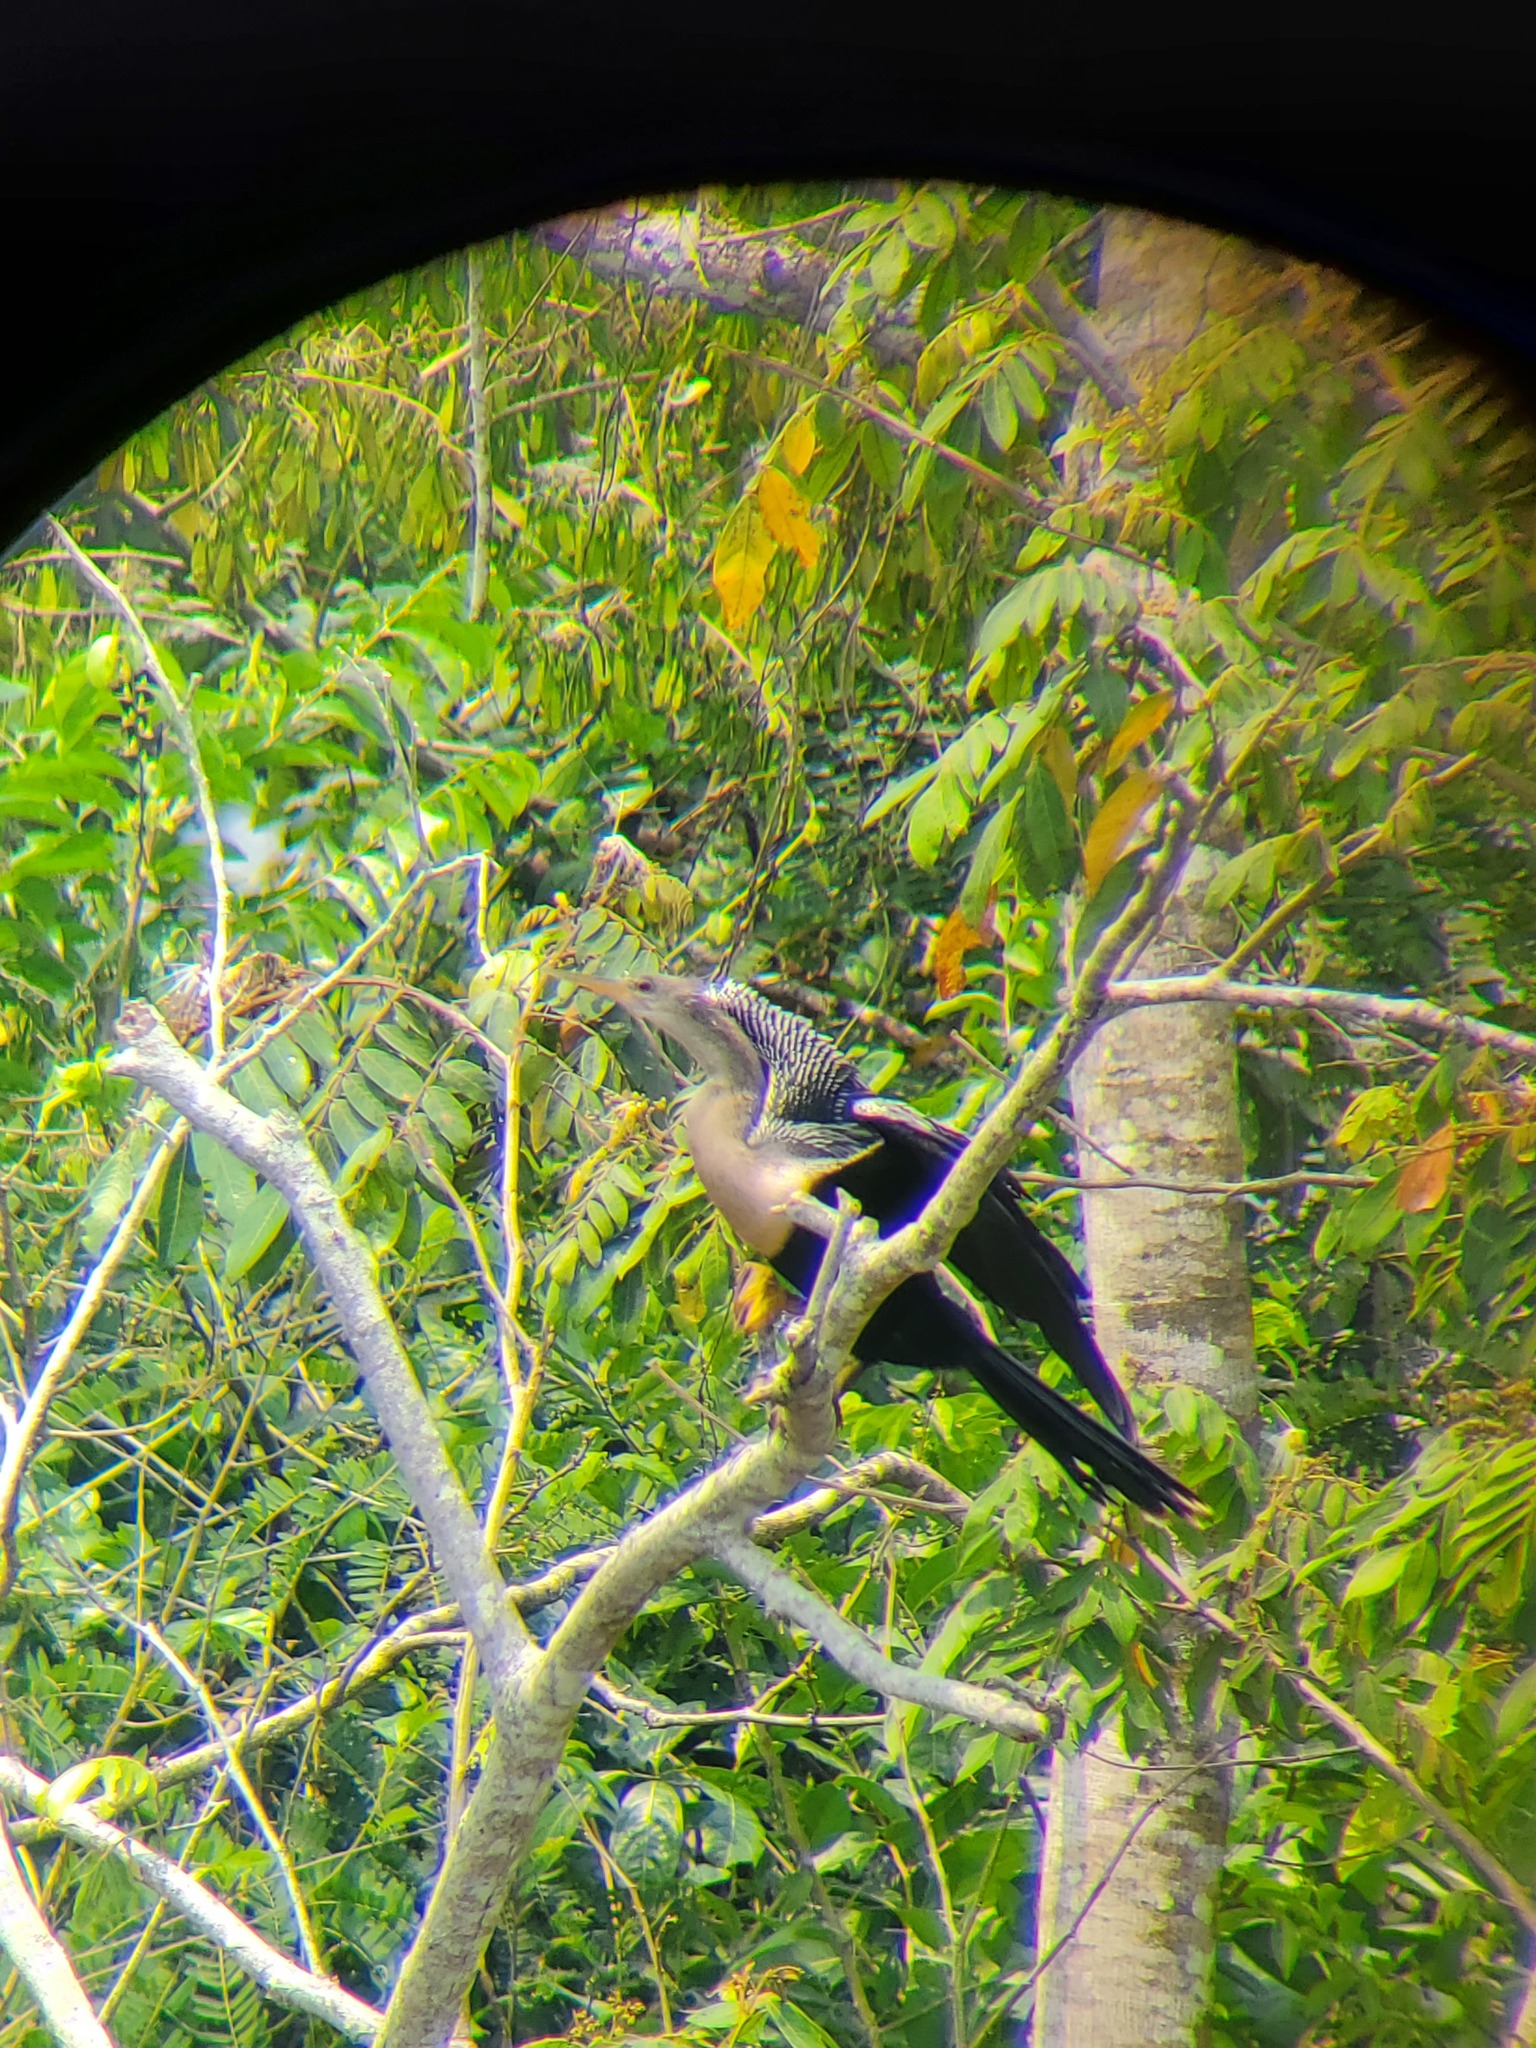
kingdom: Animalia
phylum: Chordata
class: Aves
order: Suliformes
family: Anhingidae
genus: Anhinga
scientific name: Anhinga anhinga
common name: Anhinga
